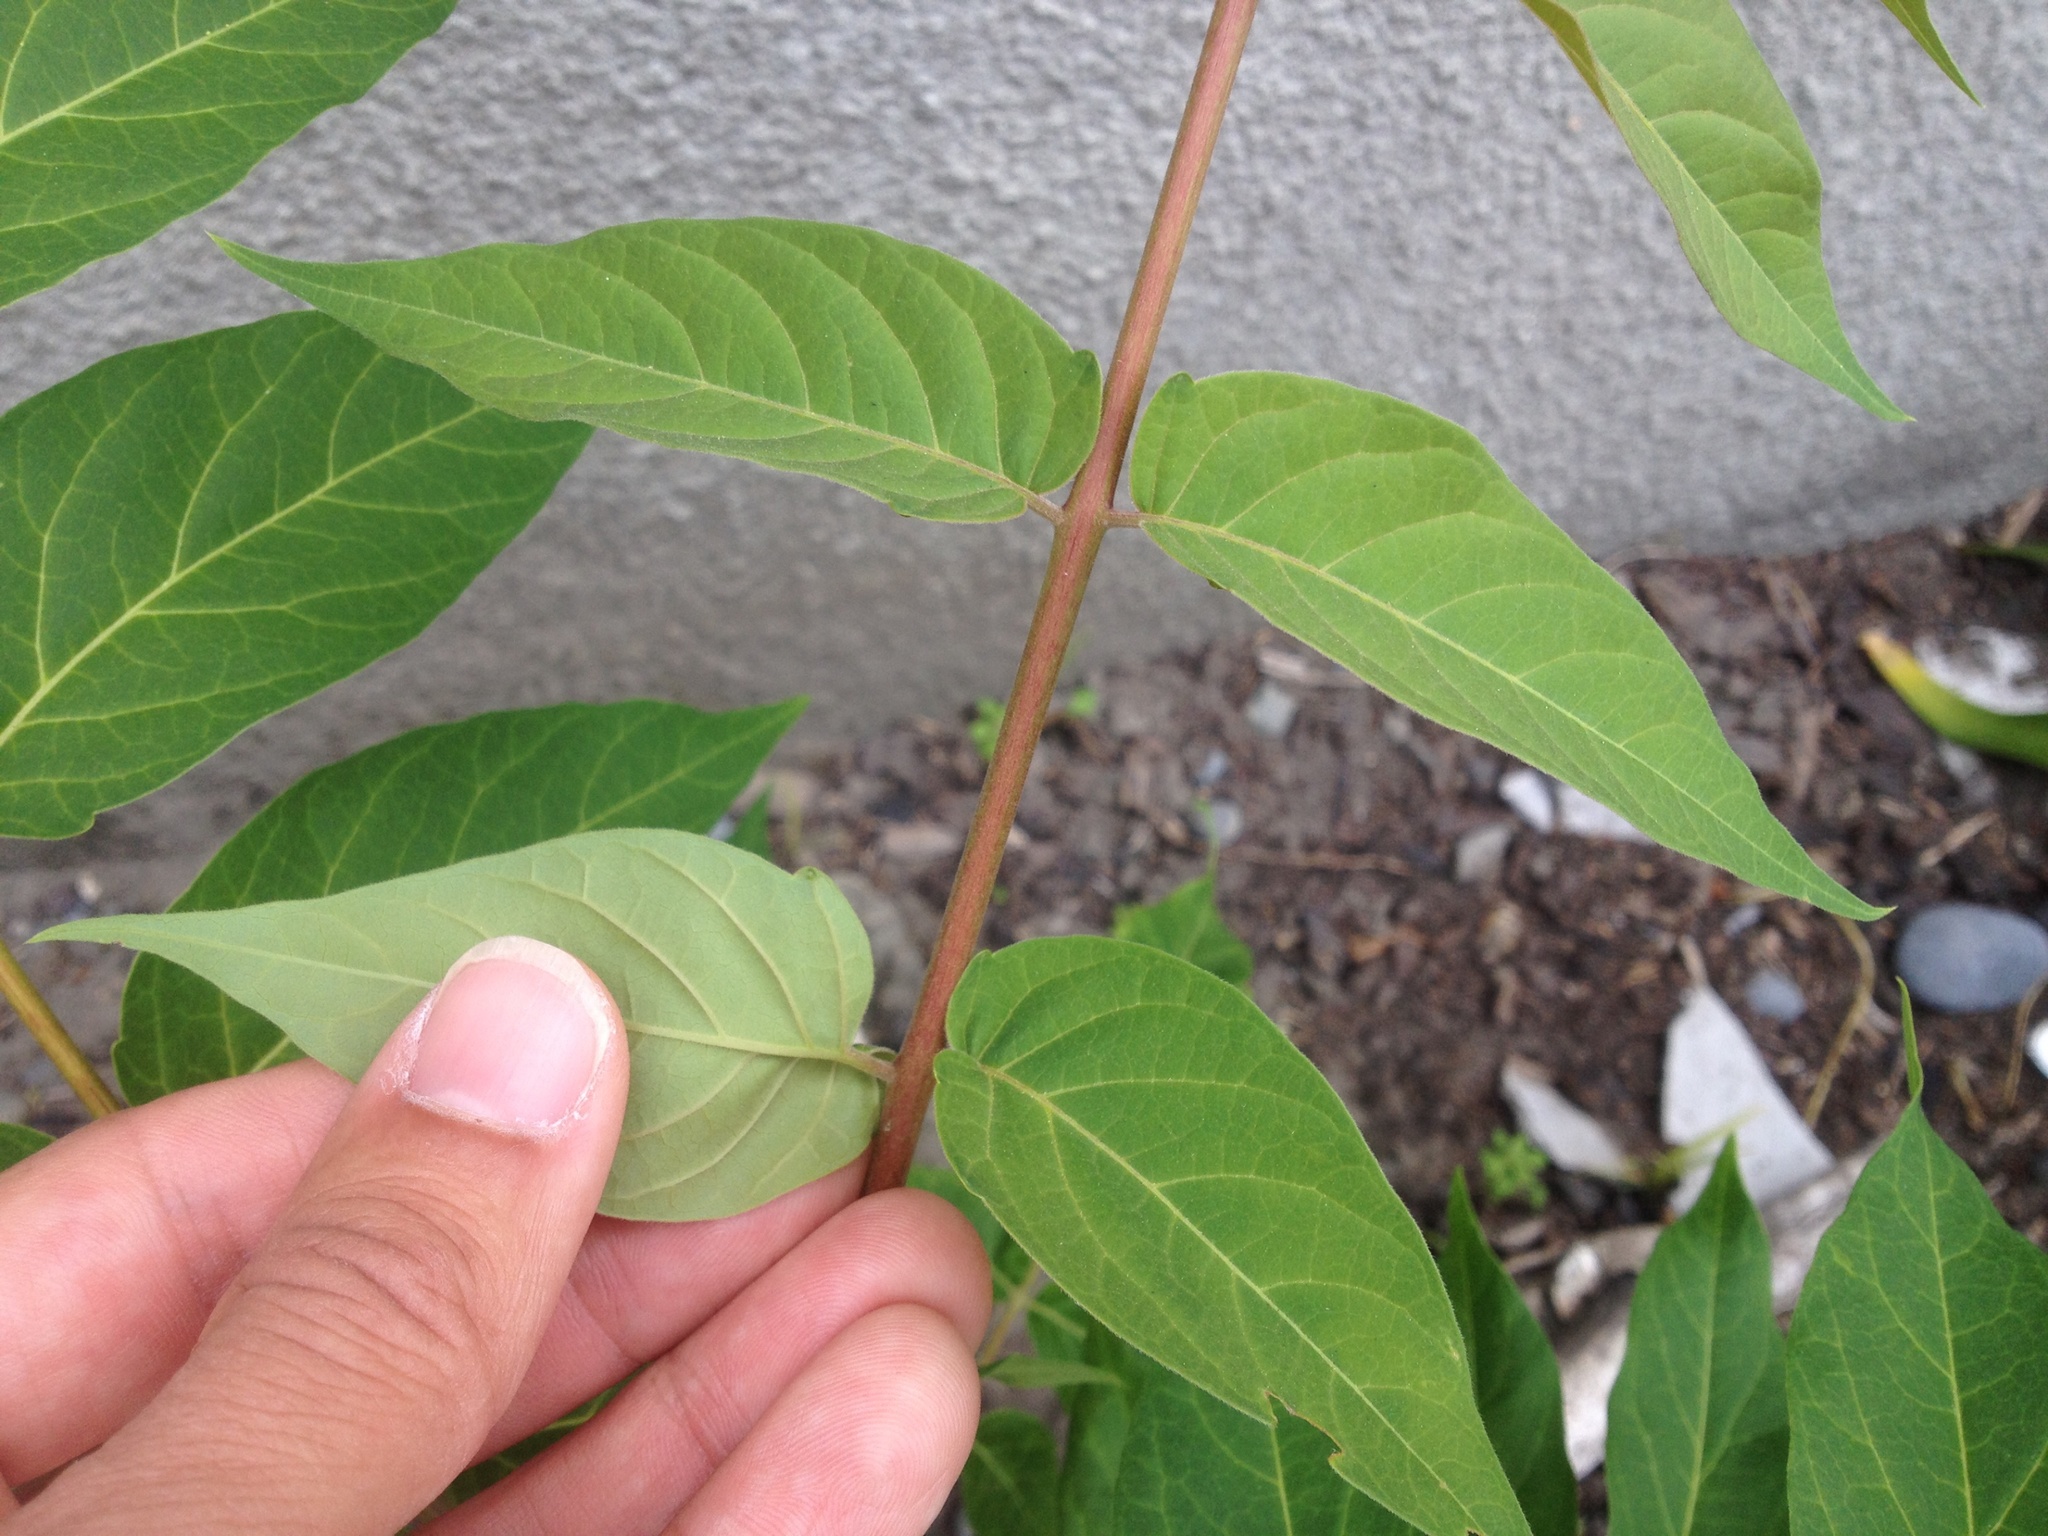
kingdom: Plantae
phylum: Tracheophyta
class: Magnoliopsida
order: Sapindales
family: Simaroubaceae
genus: Ailanthus
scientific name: Ailanthus altissima
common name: Tree-of-heaven
